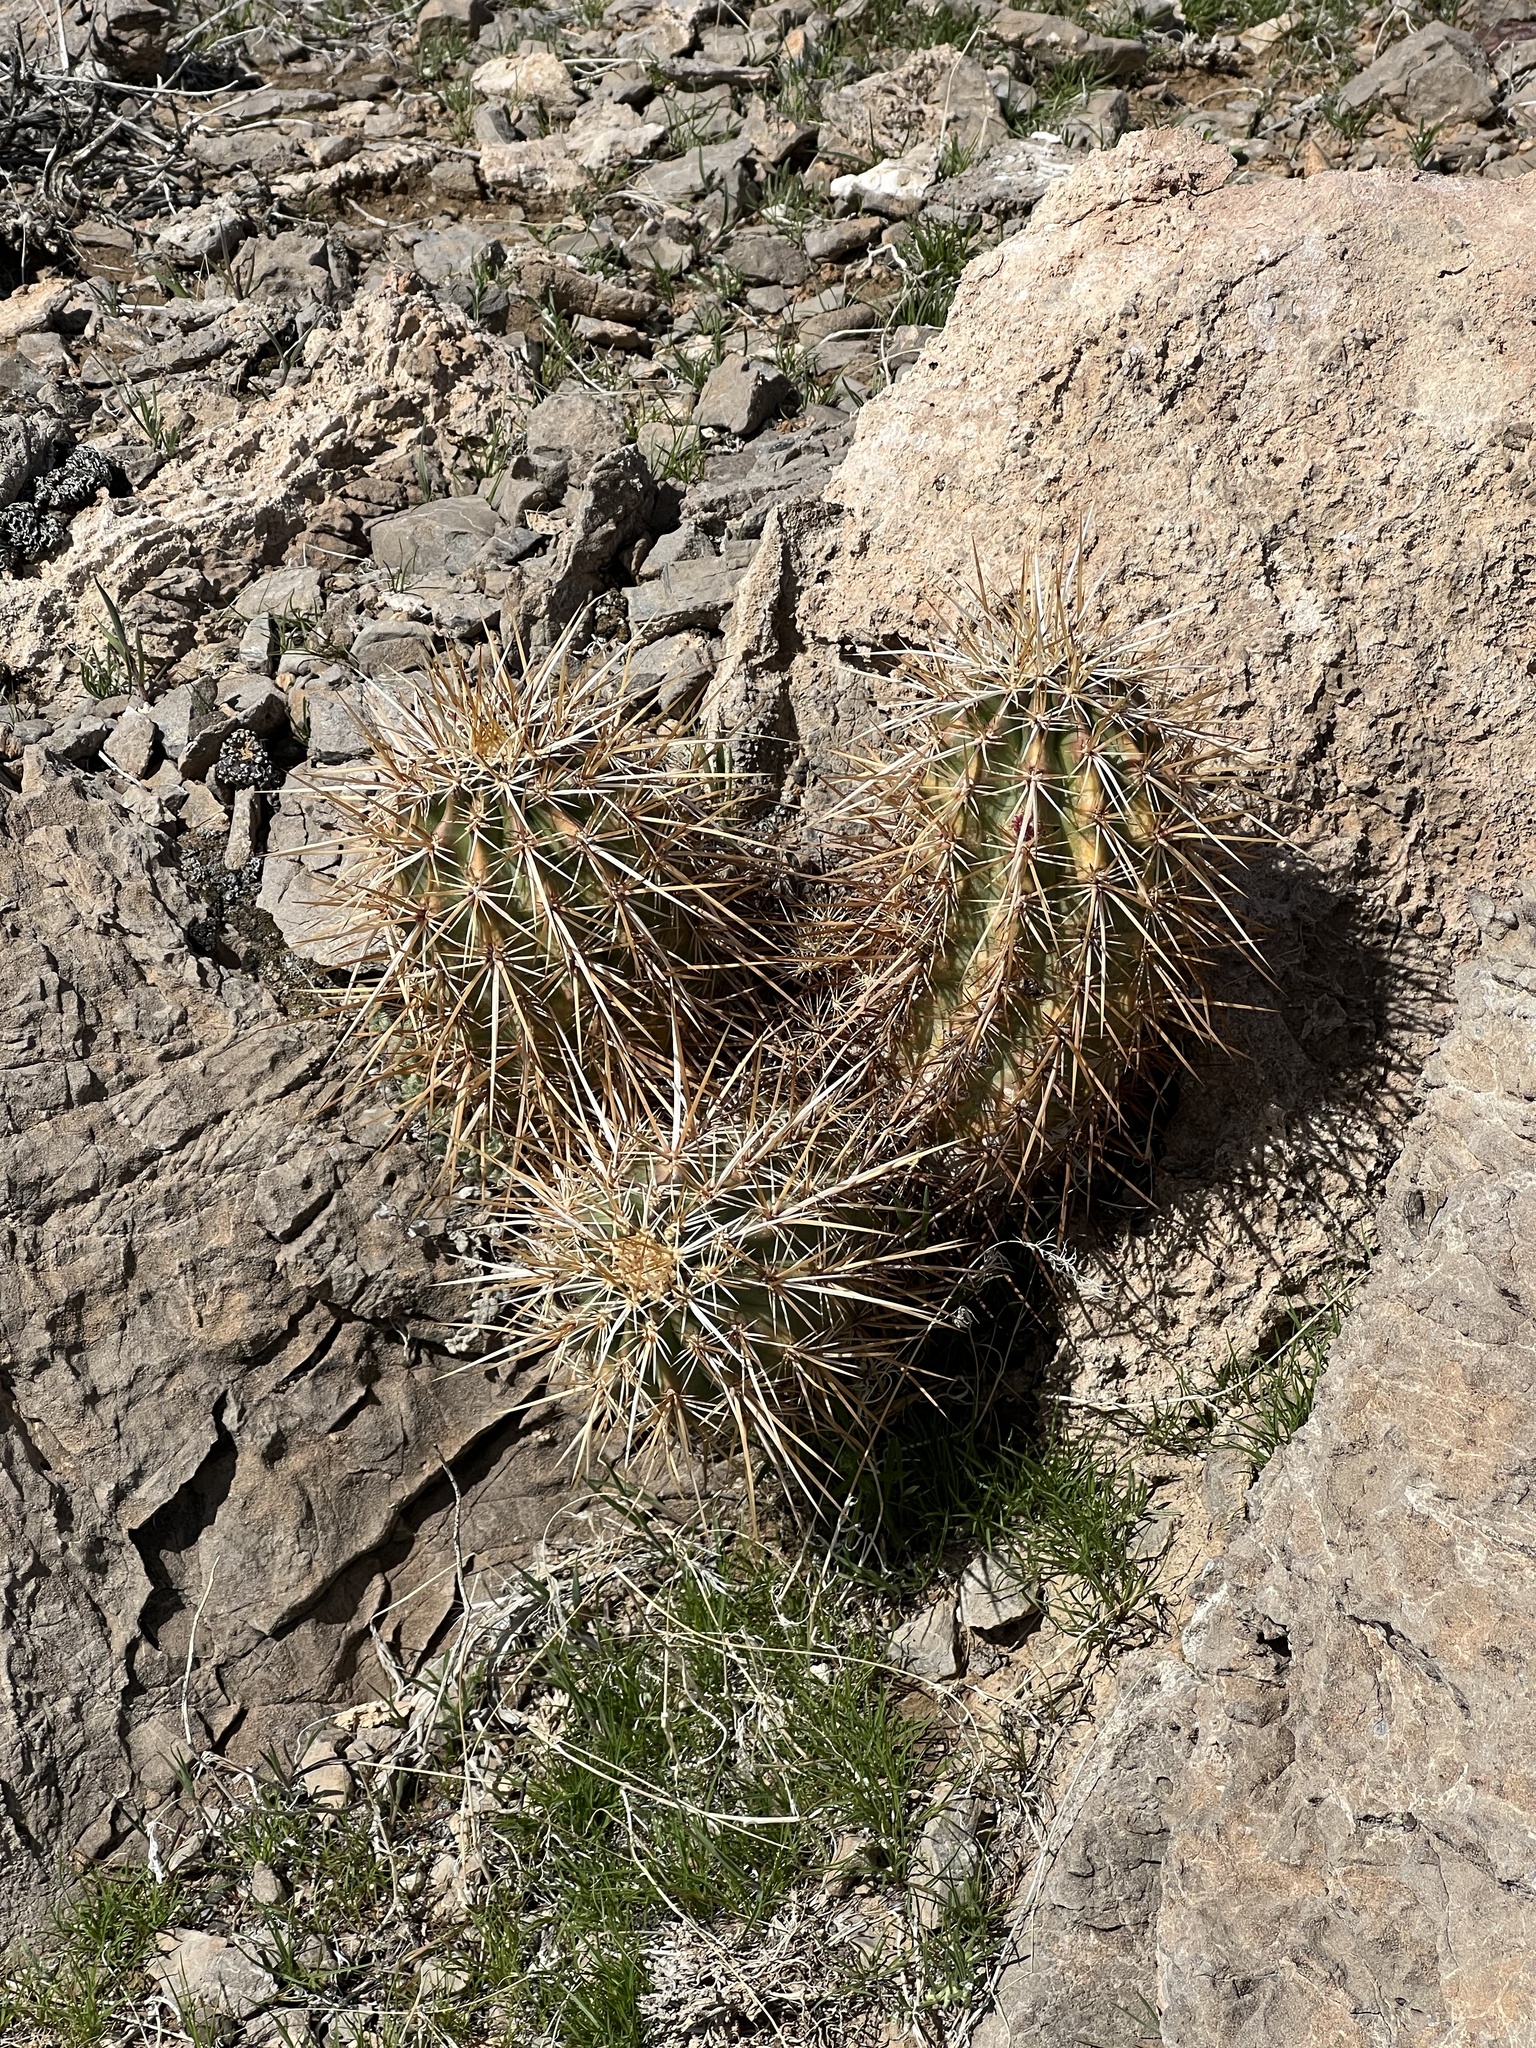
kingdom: Plantae
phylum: Tracheophyta
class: Magnoliopsida
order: Caryophyllales
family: Cactaceae
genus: Echinocereus
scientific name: Echinocereus engelmannii
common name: Engelmann's hedgehog cactus
